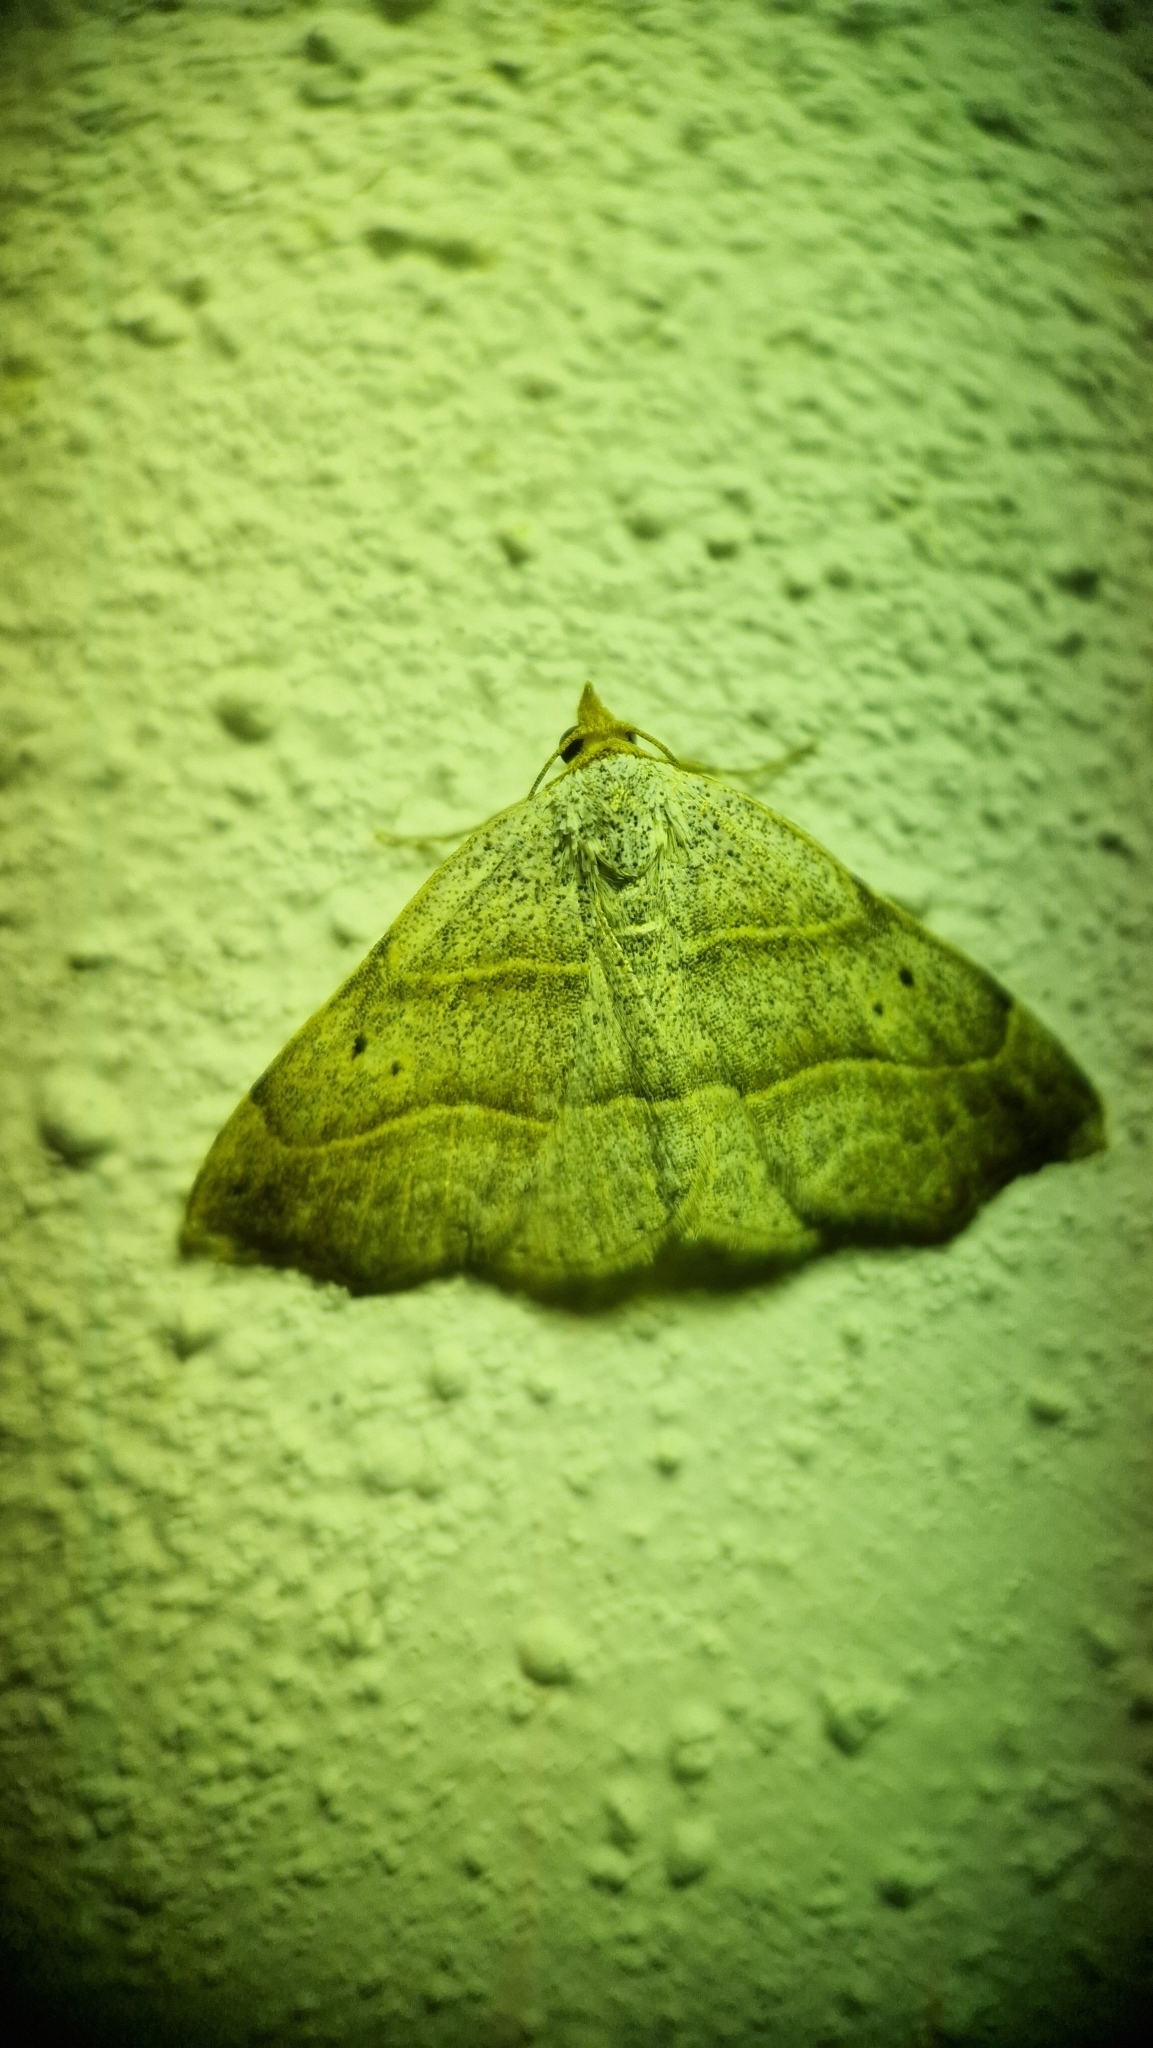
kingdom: Animalia
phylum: Arthropoda
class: Insecta
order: Lepidoptera
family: Erebidae
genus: Laspeyria
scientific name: Laspeyria flexula
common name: Beautiful hook-tip
